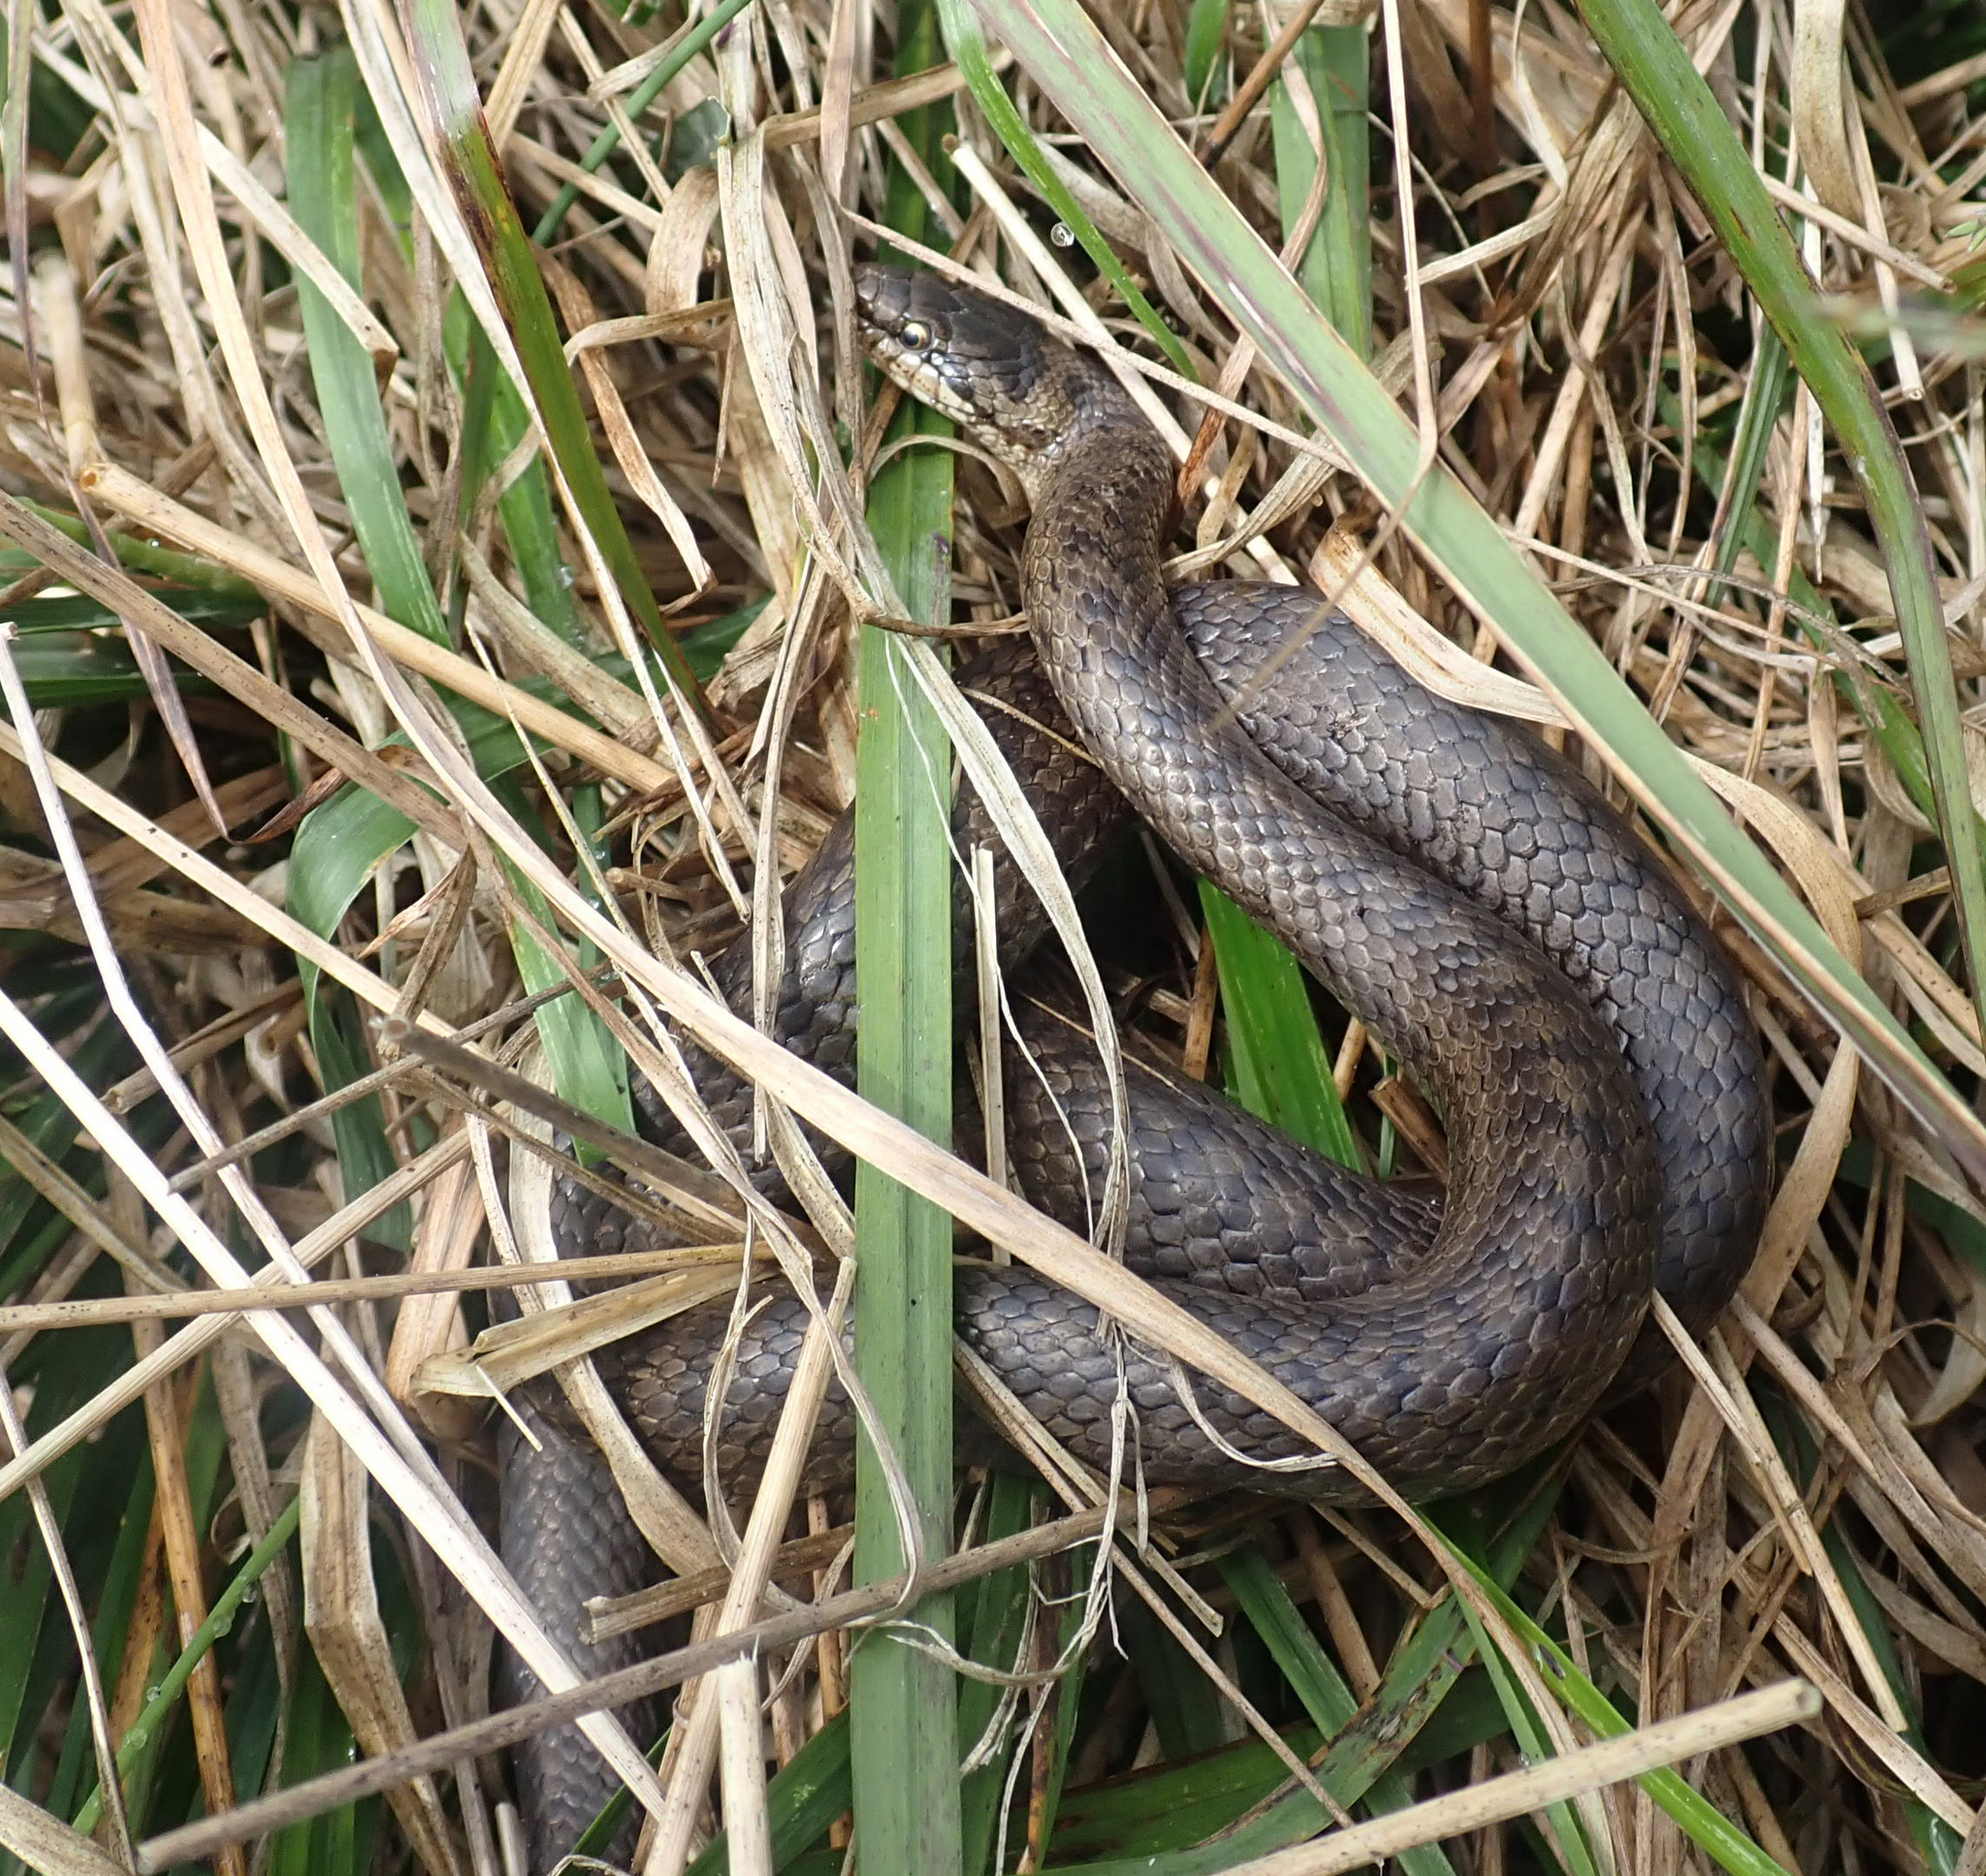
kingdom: Animalia
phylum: Chordata
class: Squamata
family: Colubridae
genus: Coronella
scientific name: Coronella austriaca
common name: Smooth snake
